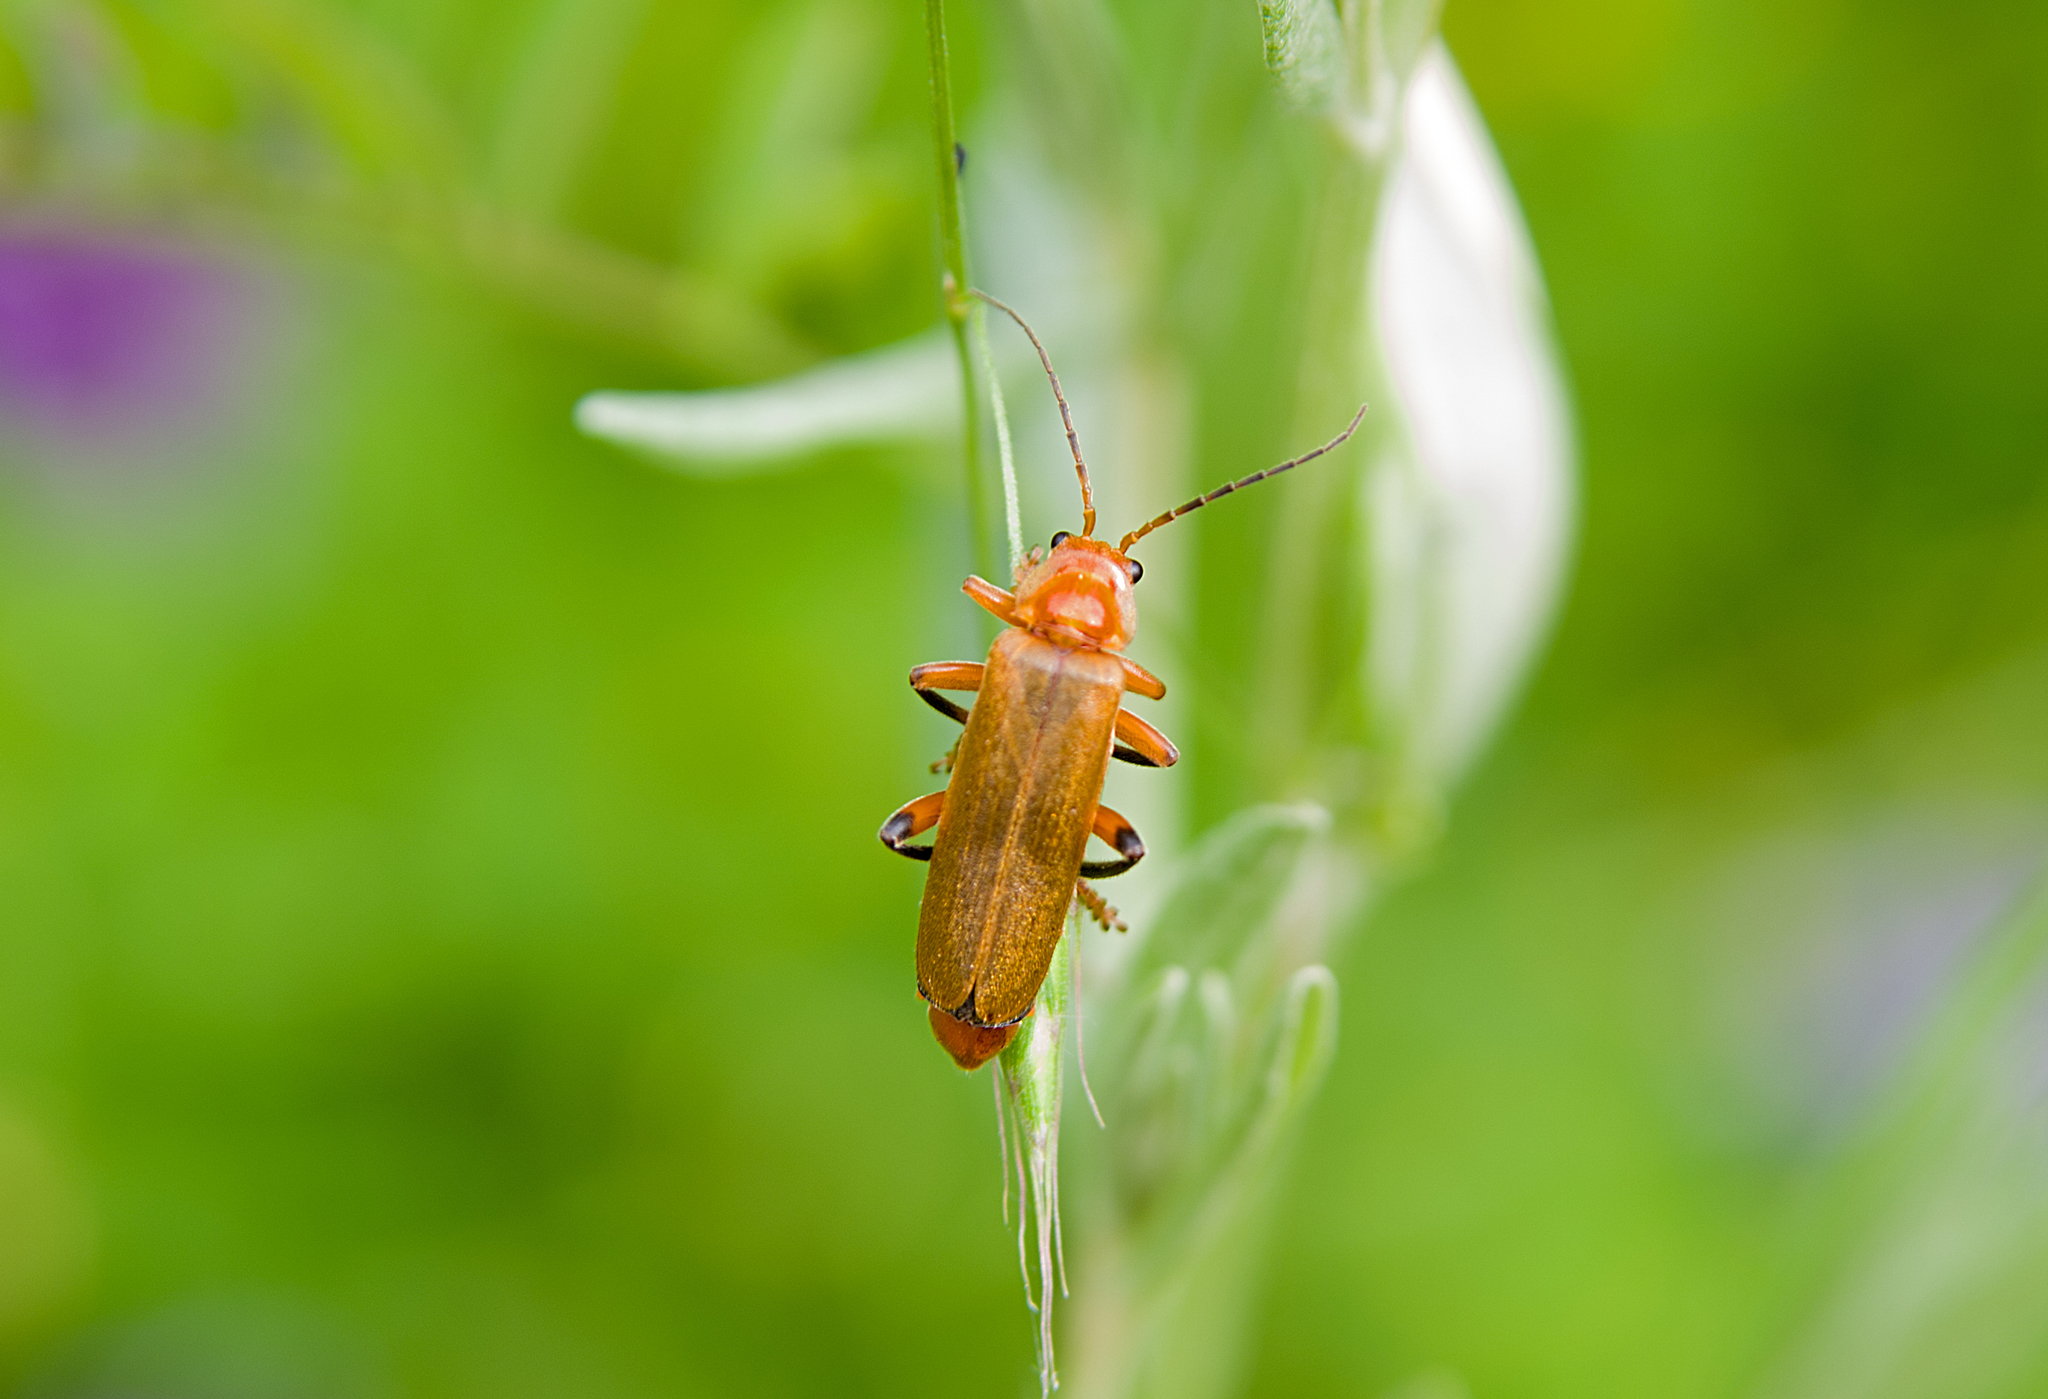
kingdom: Animalia
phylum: Arthropoda
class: Insecta
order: Coleoptera
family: Cantharidae
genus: Cantharis
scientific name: Cantharis livida
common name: Livid soldier beetle
